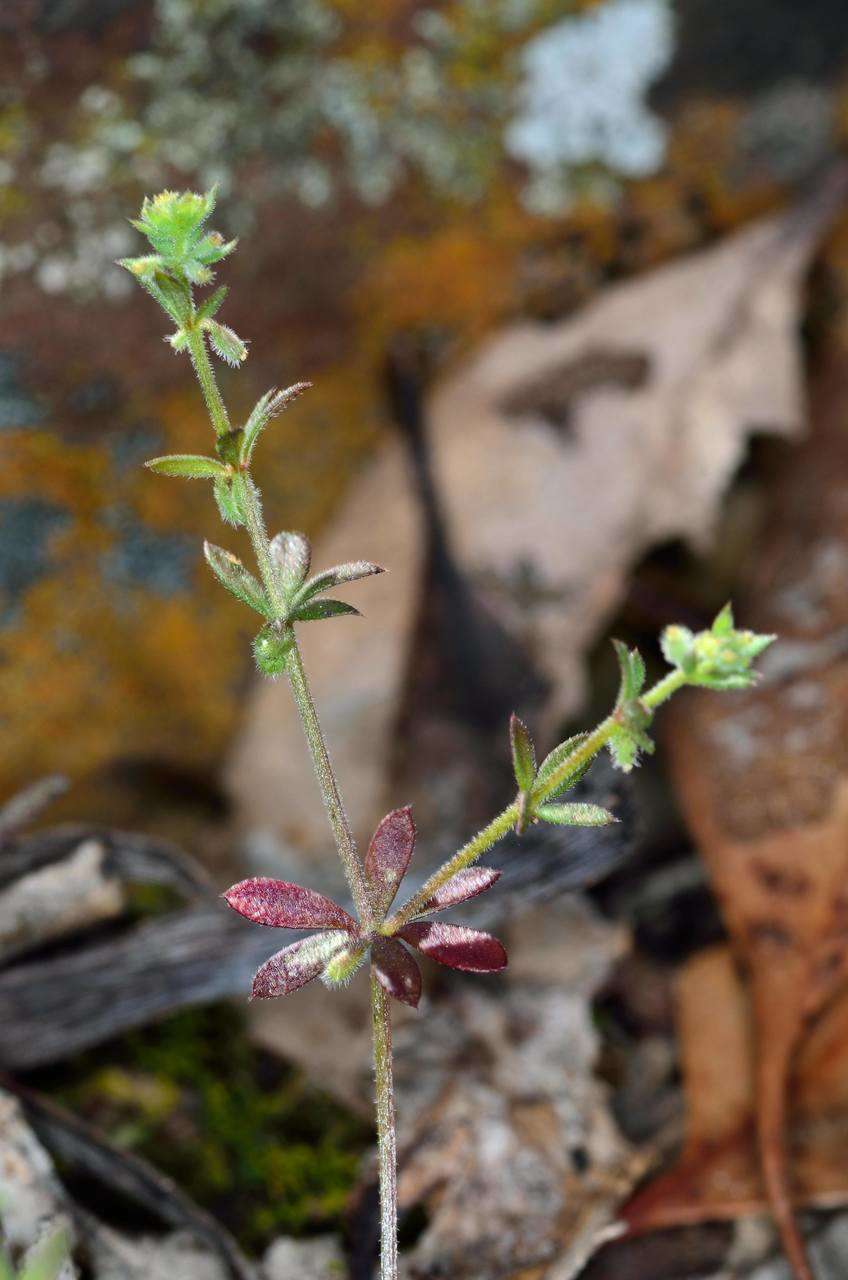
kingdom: Plantae
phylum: Tracheophyta
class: Magnoliopsida
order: Gentianales
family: Rubiaceae
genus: Galium
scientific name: Galium murale
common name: Yellow wall bedstraw
